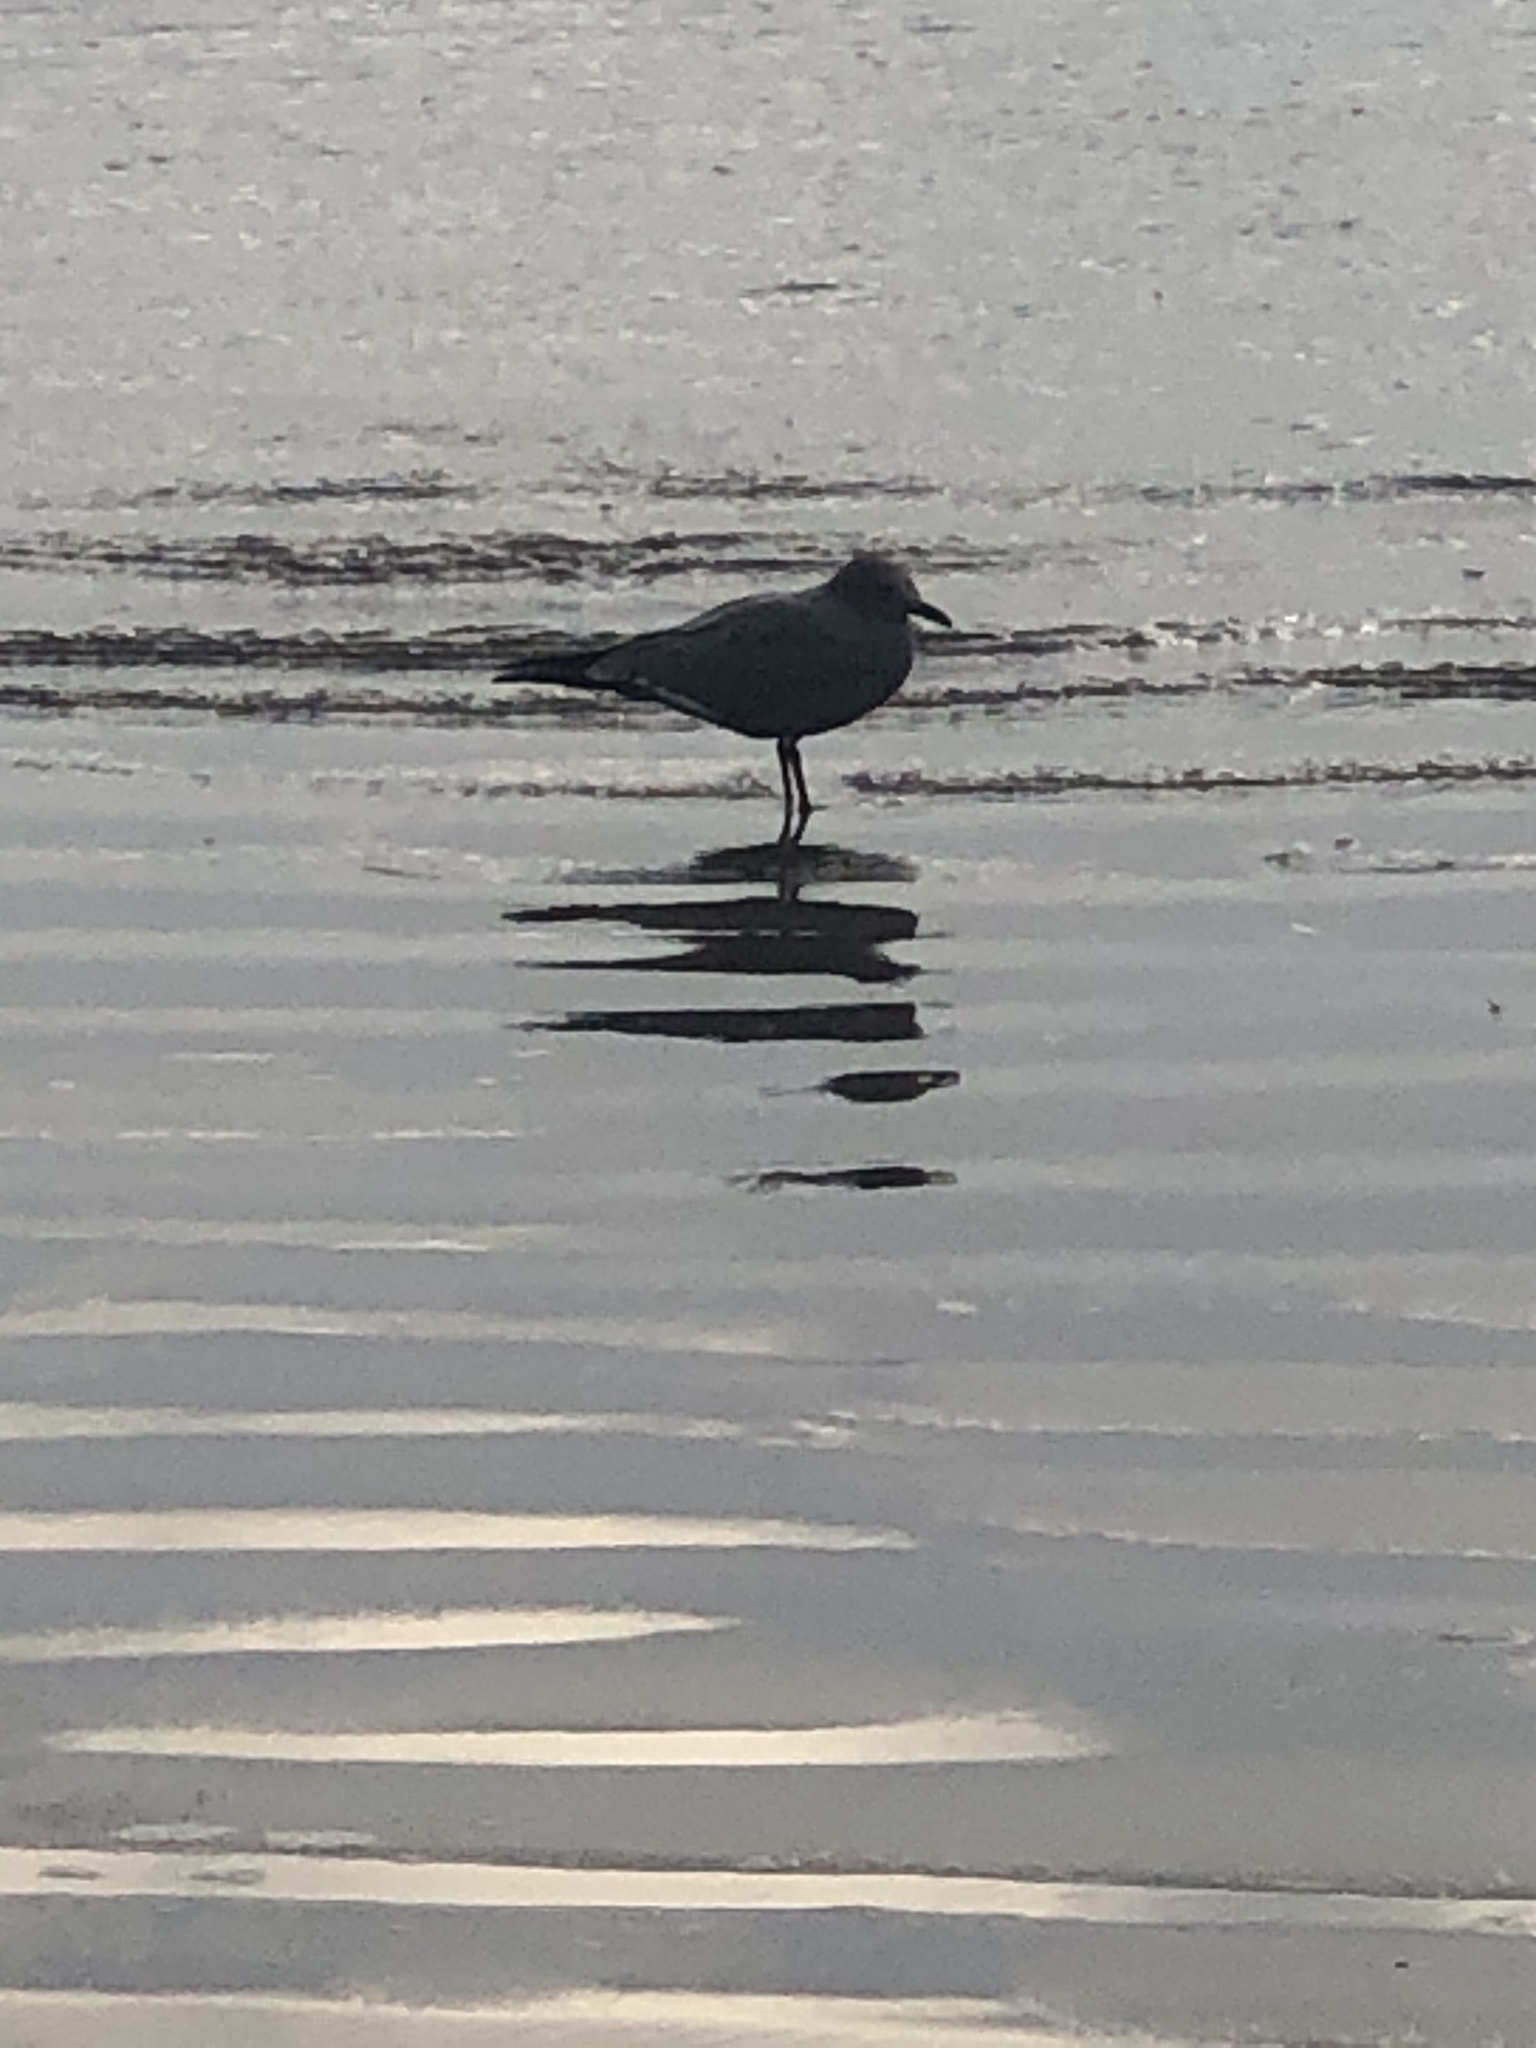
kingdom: Animalia
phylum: Chordata
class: Aves
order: Charadriiformes
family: Laridae
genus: Leucophaeus
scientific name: Leucophaeus modestus
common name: Gray gull
